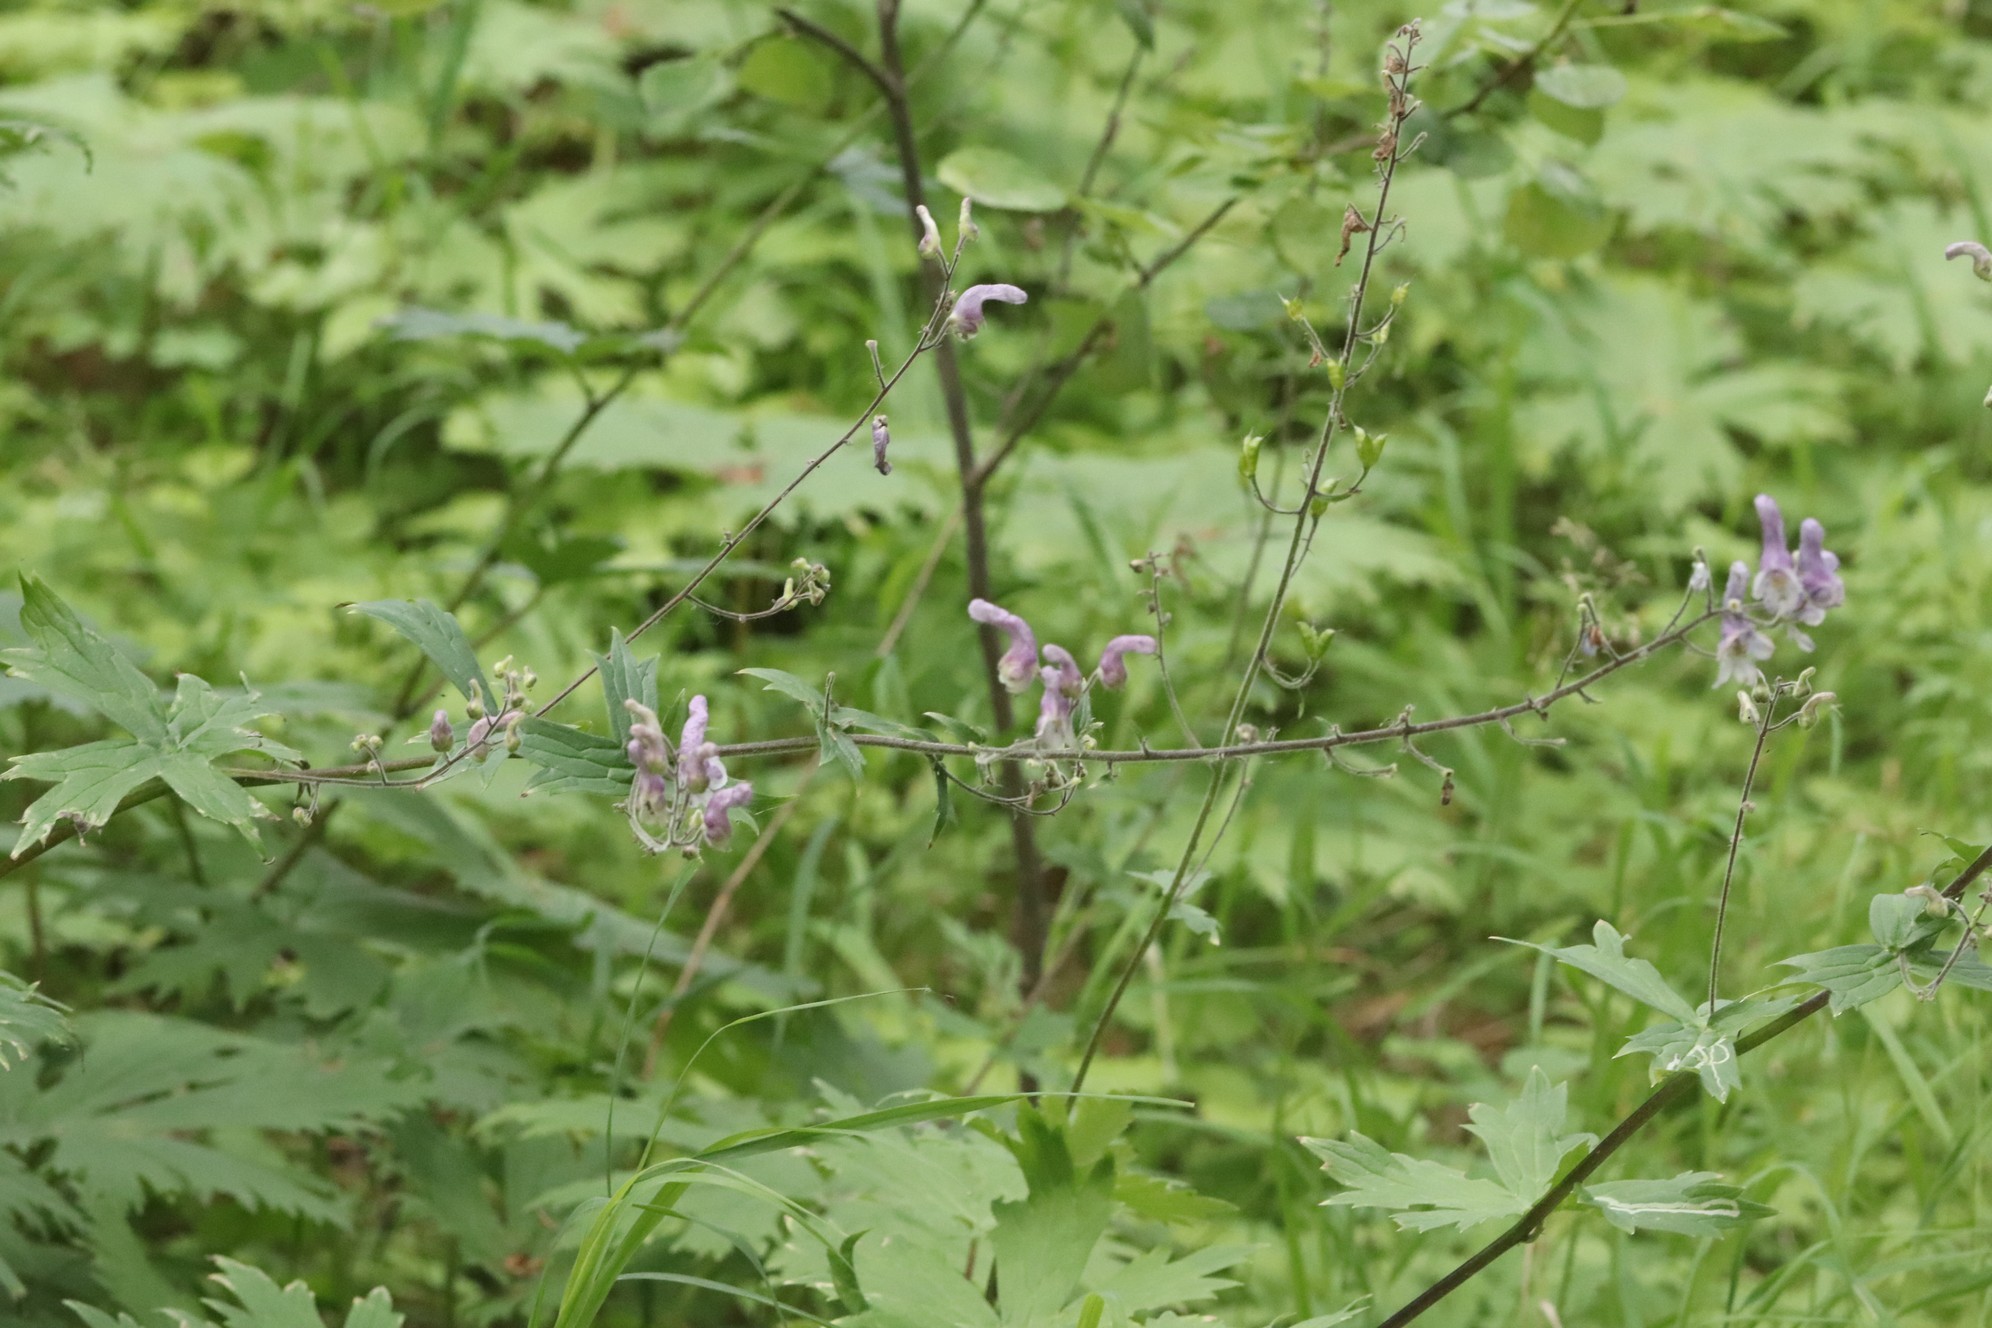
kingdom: Plantae
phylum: Tracheophyta
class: Magnoliopsida
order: Ranunculales
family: Ranunculaceae
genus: Aconitum
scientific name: Aconitum septentrionale
